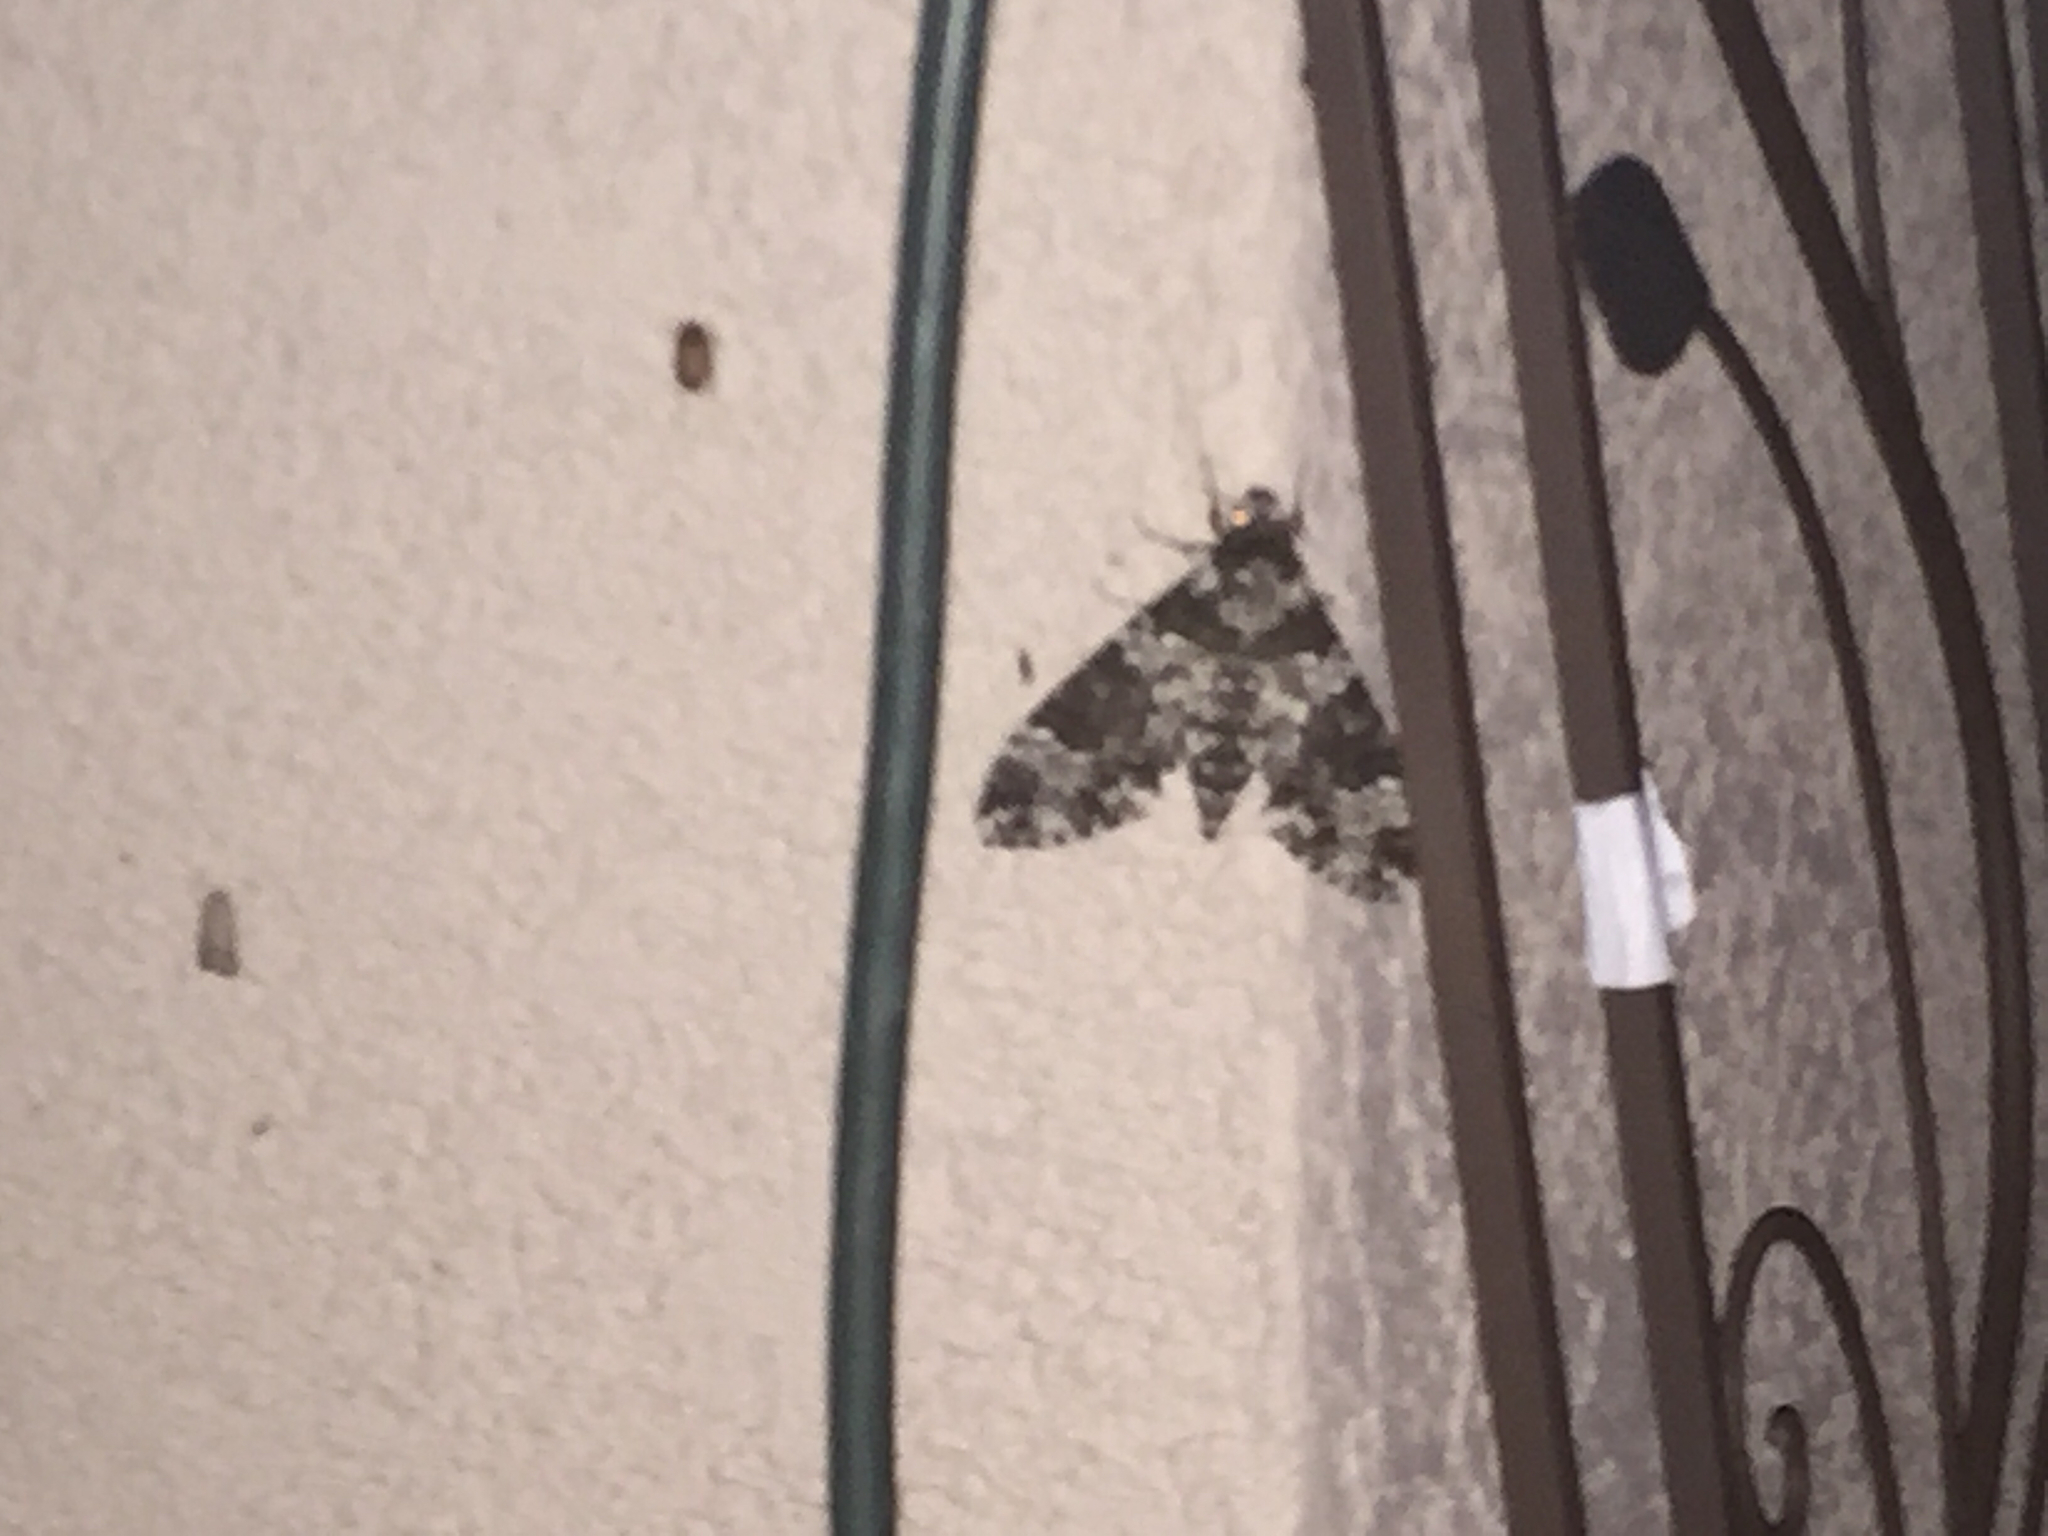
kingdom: Animalia
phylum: Arthropoda
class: Insecta
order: Lepidoptera
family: Sphingidae
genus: Manduca
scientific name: Manduca rustica
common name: Rustic sphinx
